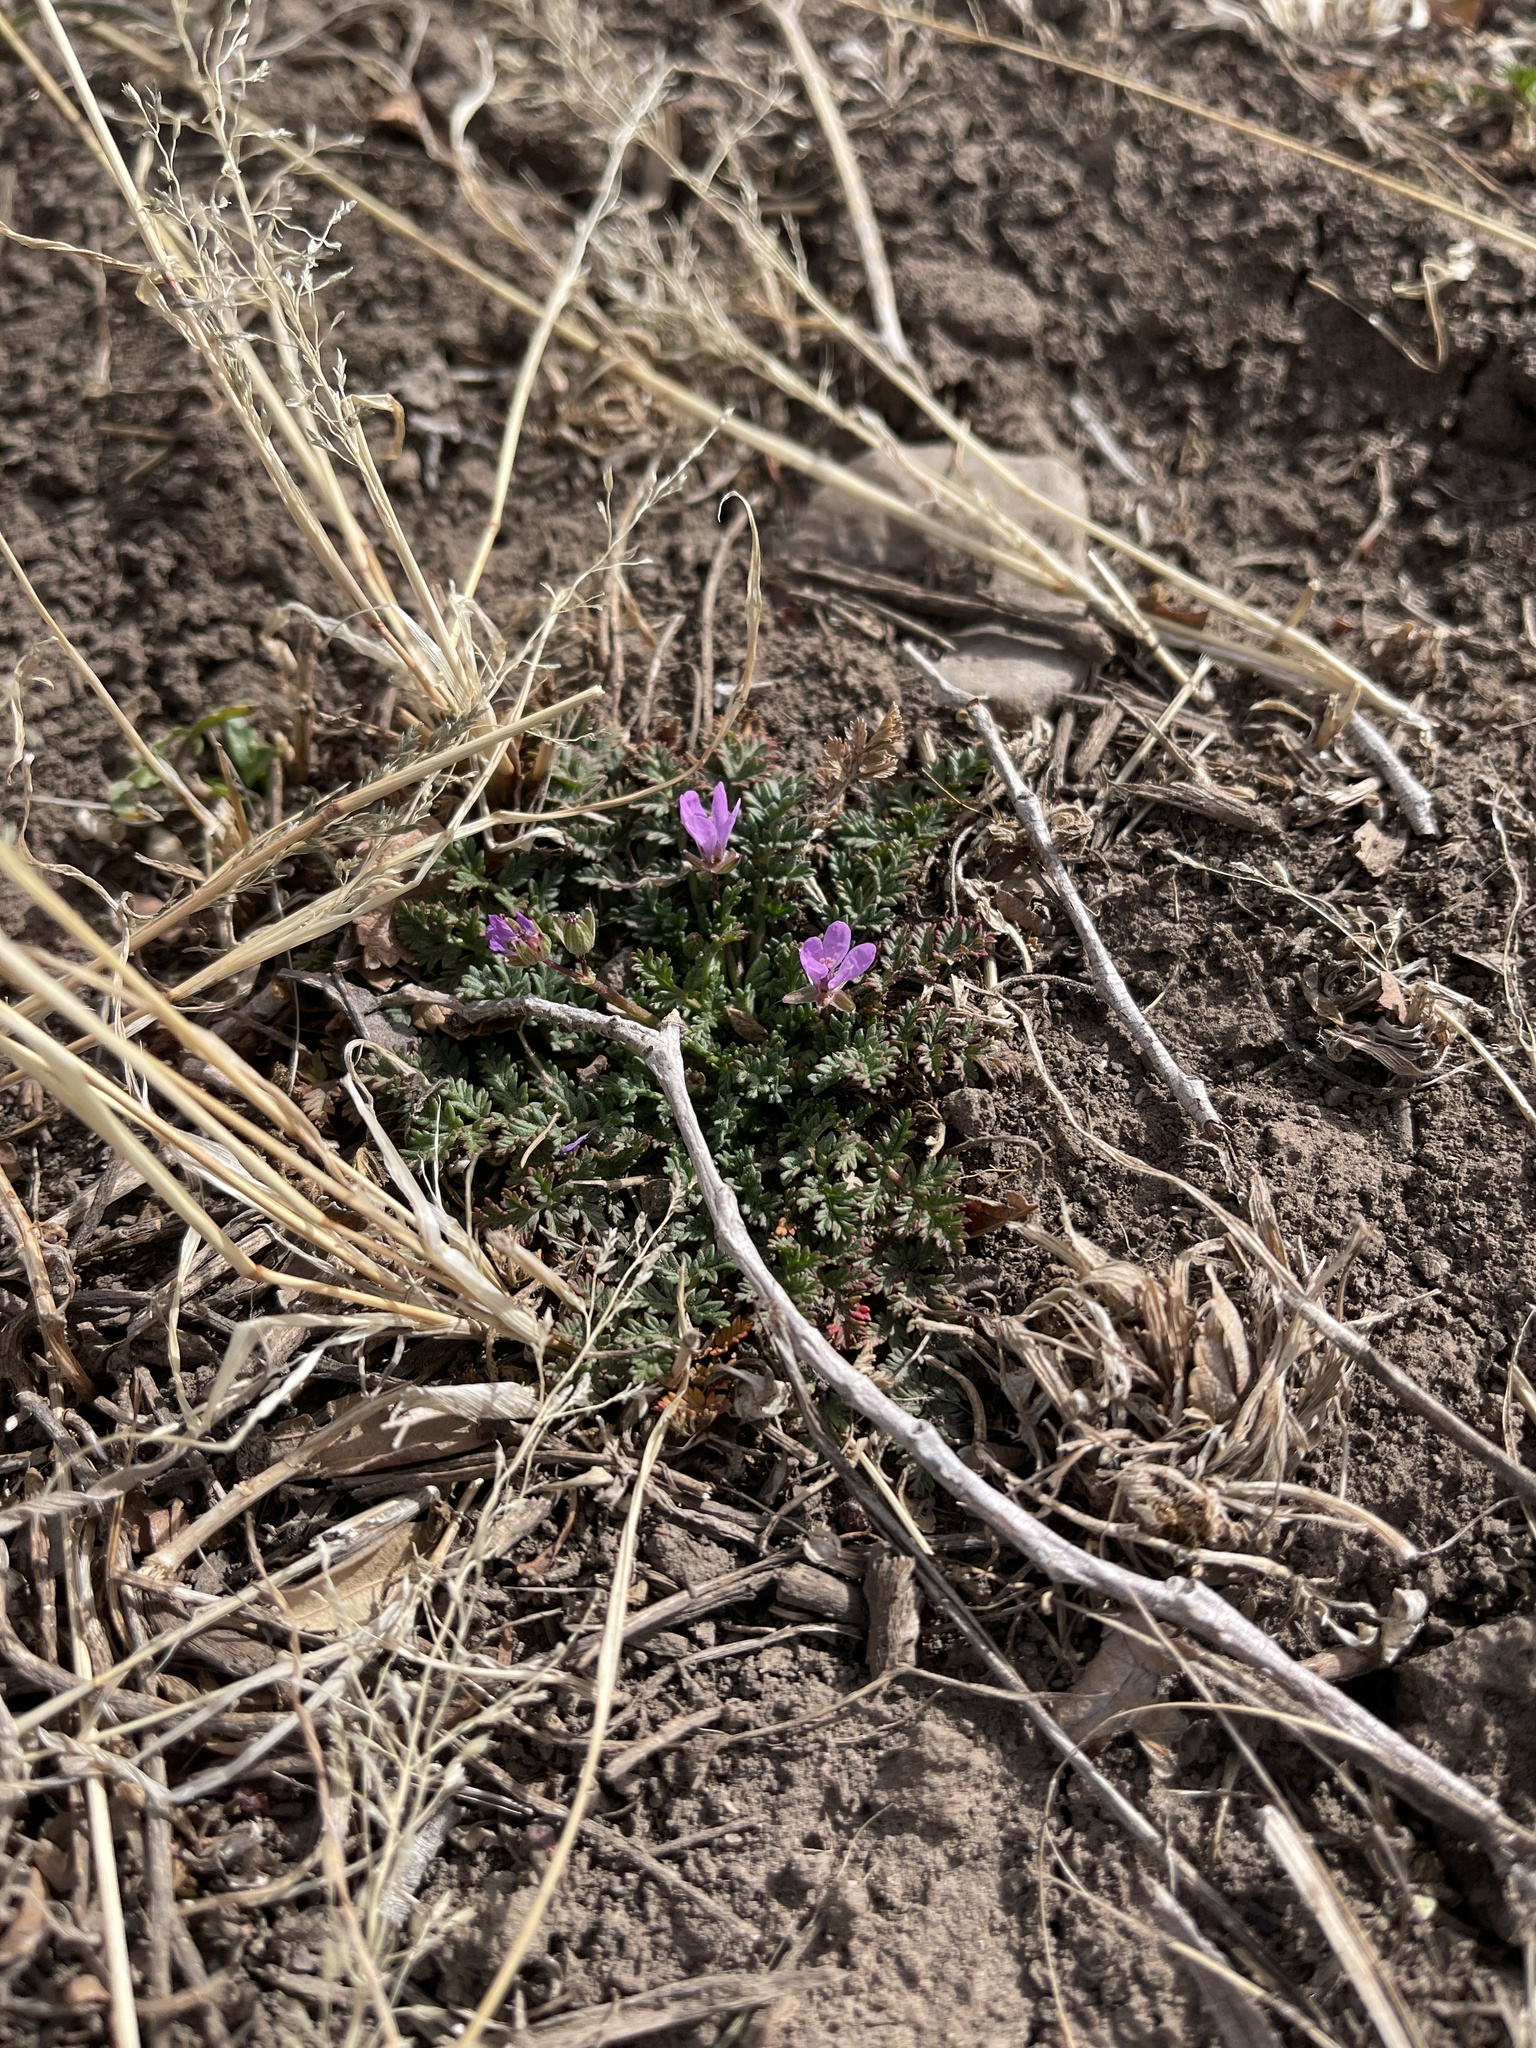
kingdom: Plantae
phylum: Tracheophyta
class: Magnoliopsida
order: Geraniales
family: Geraniaceae
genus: Erodium
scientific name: Erodium cicutarium
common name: Common stork's-bill
